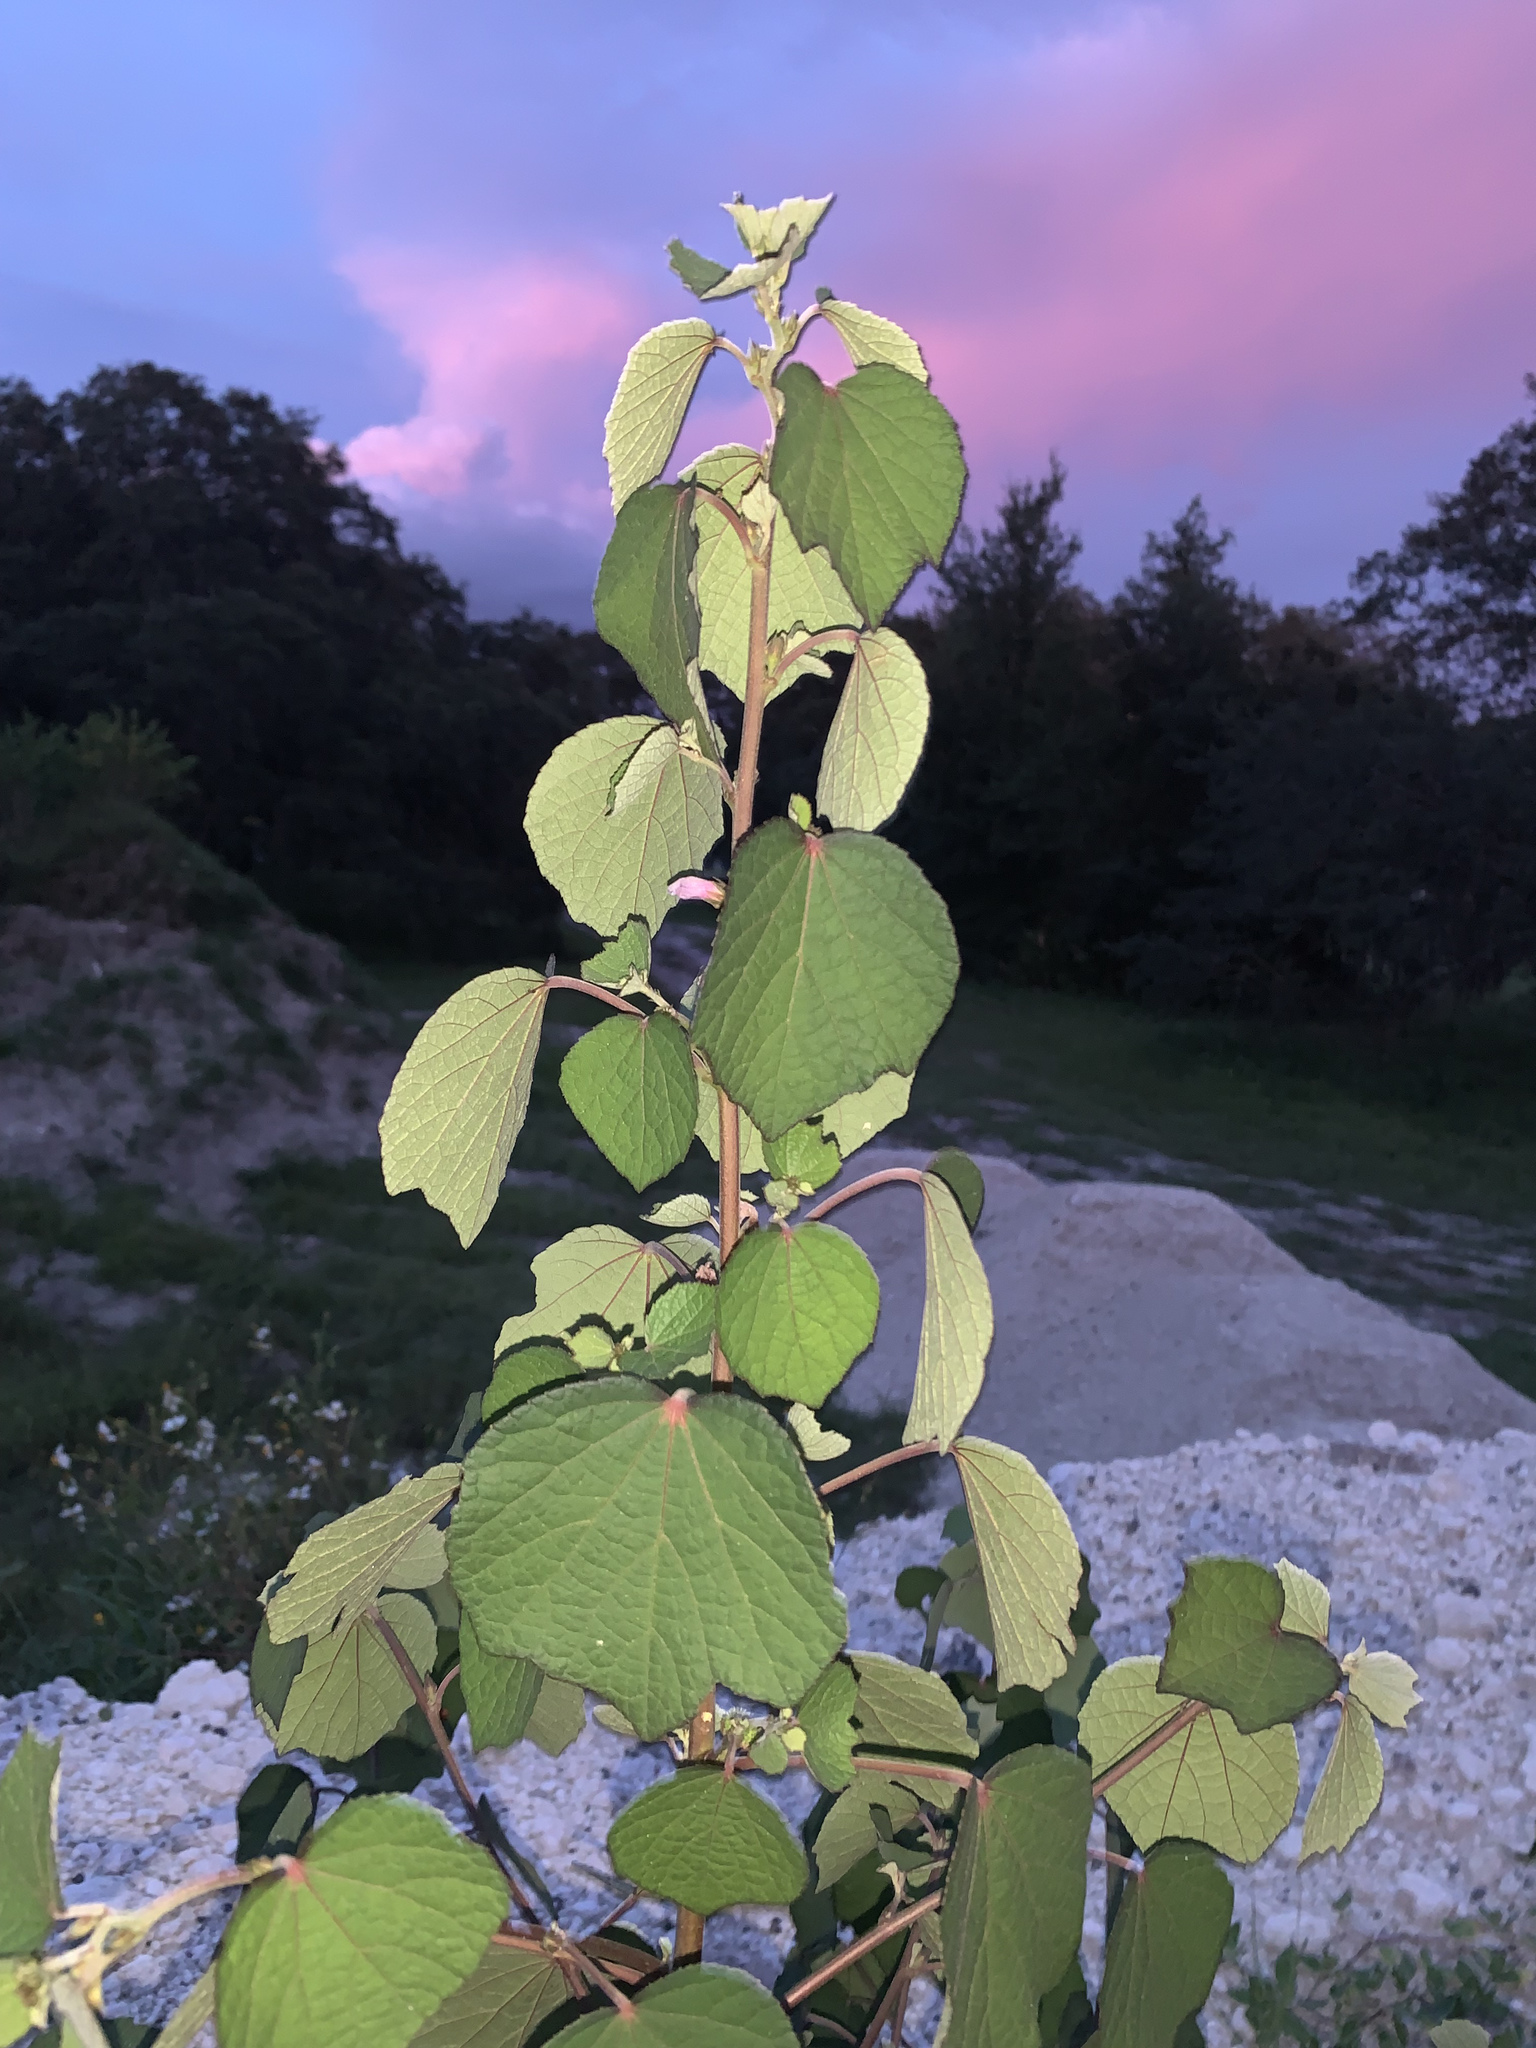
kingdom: Plantae
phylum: Tracheophyta
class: Magnoliopsida
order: Malvales
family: Malvaceae
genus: Urena
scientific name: Urena lobata
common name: Caesarweed
